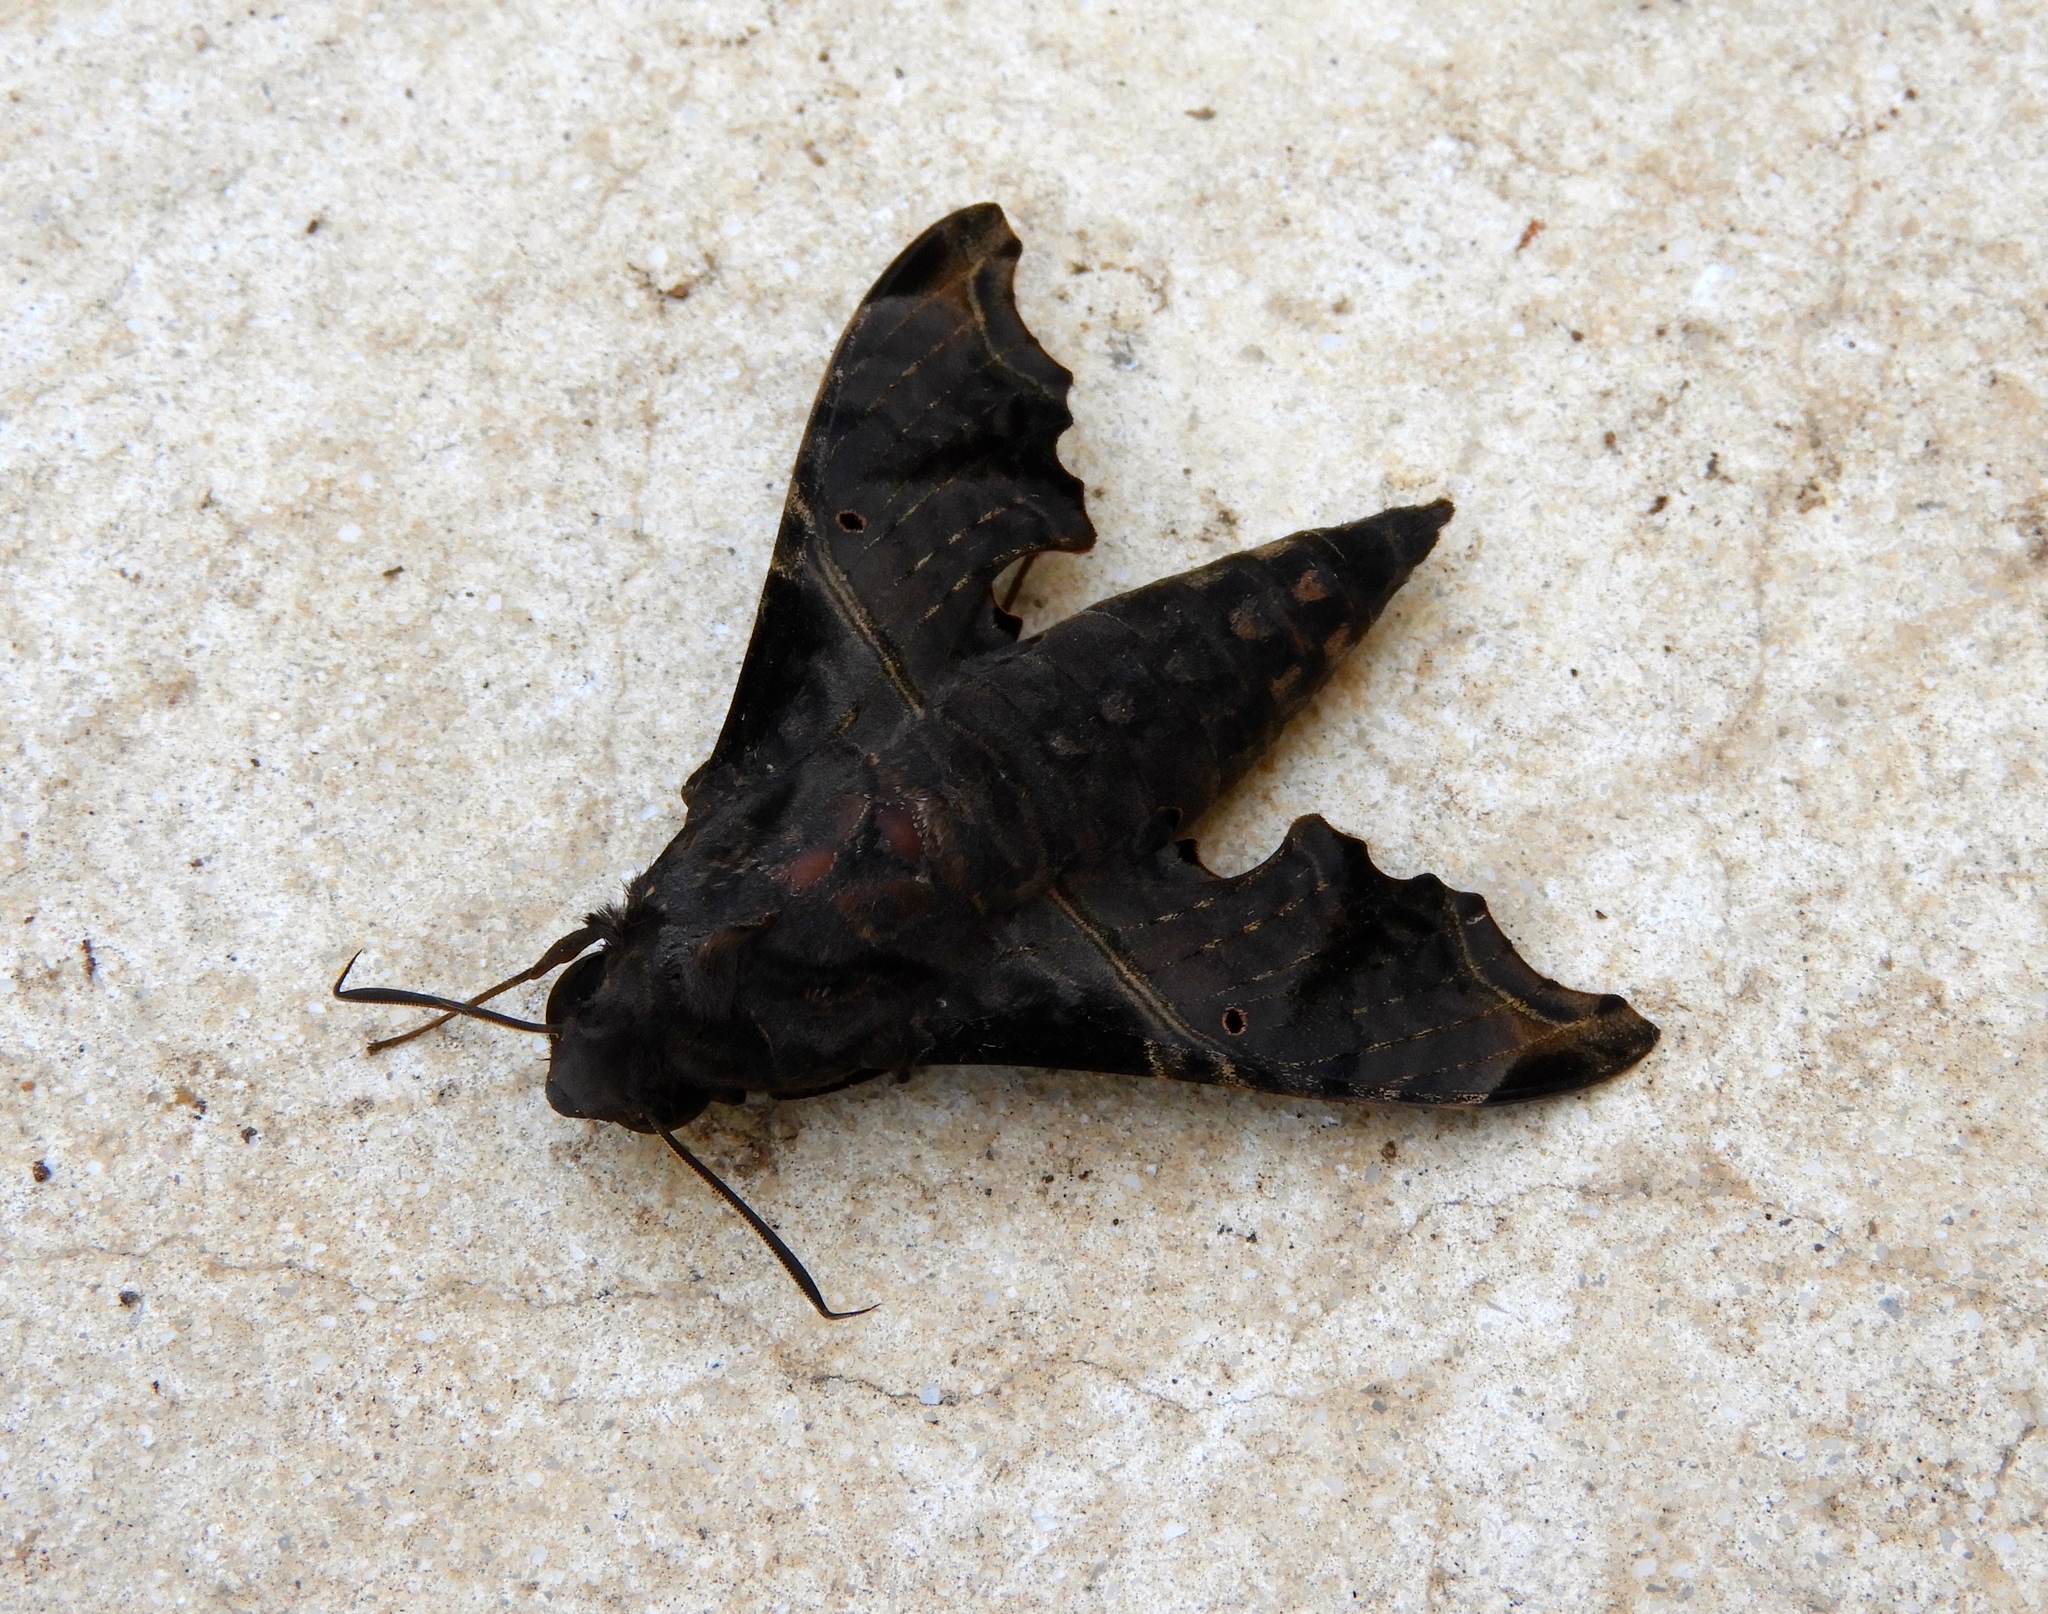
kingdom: Animalia
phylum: Arthropoda
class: Insecta
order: Lepidoptera
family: Sphingidae
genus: Enyo
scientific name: Enyo lugubris
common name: Mournful sphinx
